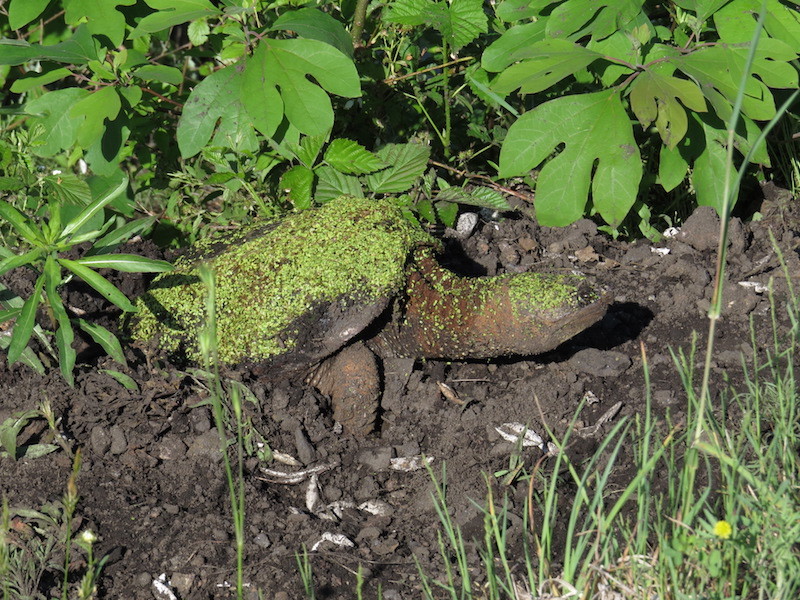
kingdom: Animalia
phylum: Chordata
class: Testudines
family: Chelydridae
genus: Chelydra
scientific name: Chelydra serpentina
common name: Common snapping turtle
